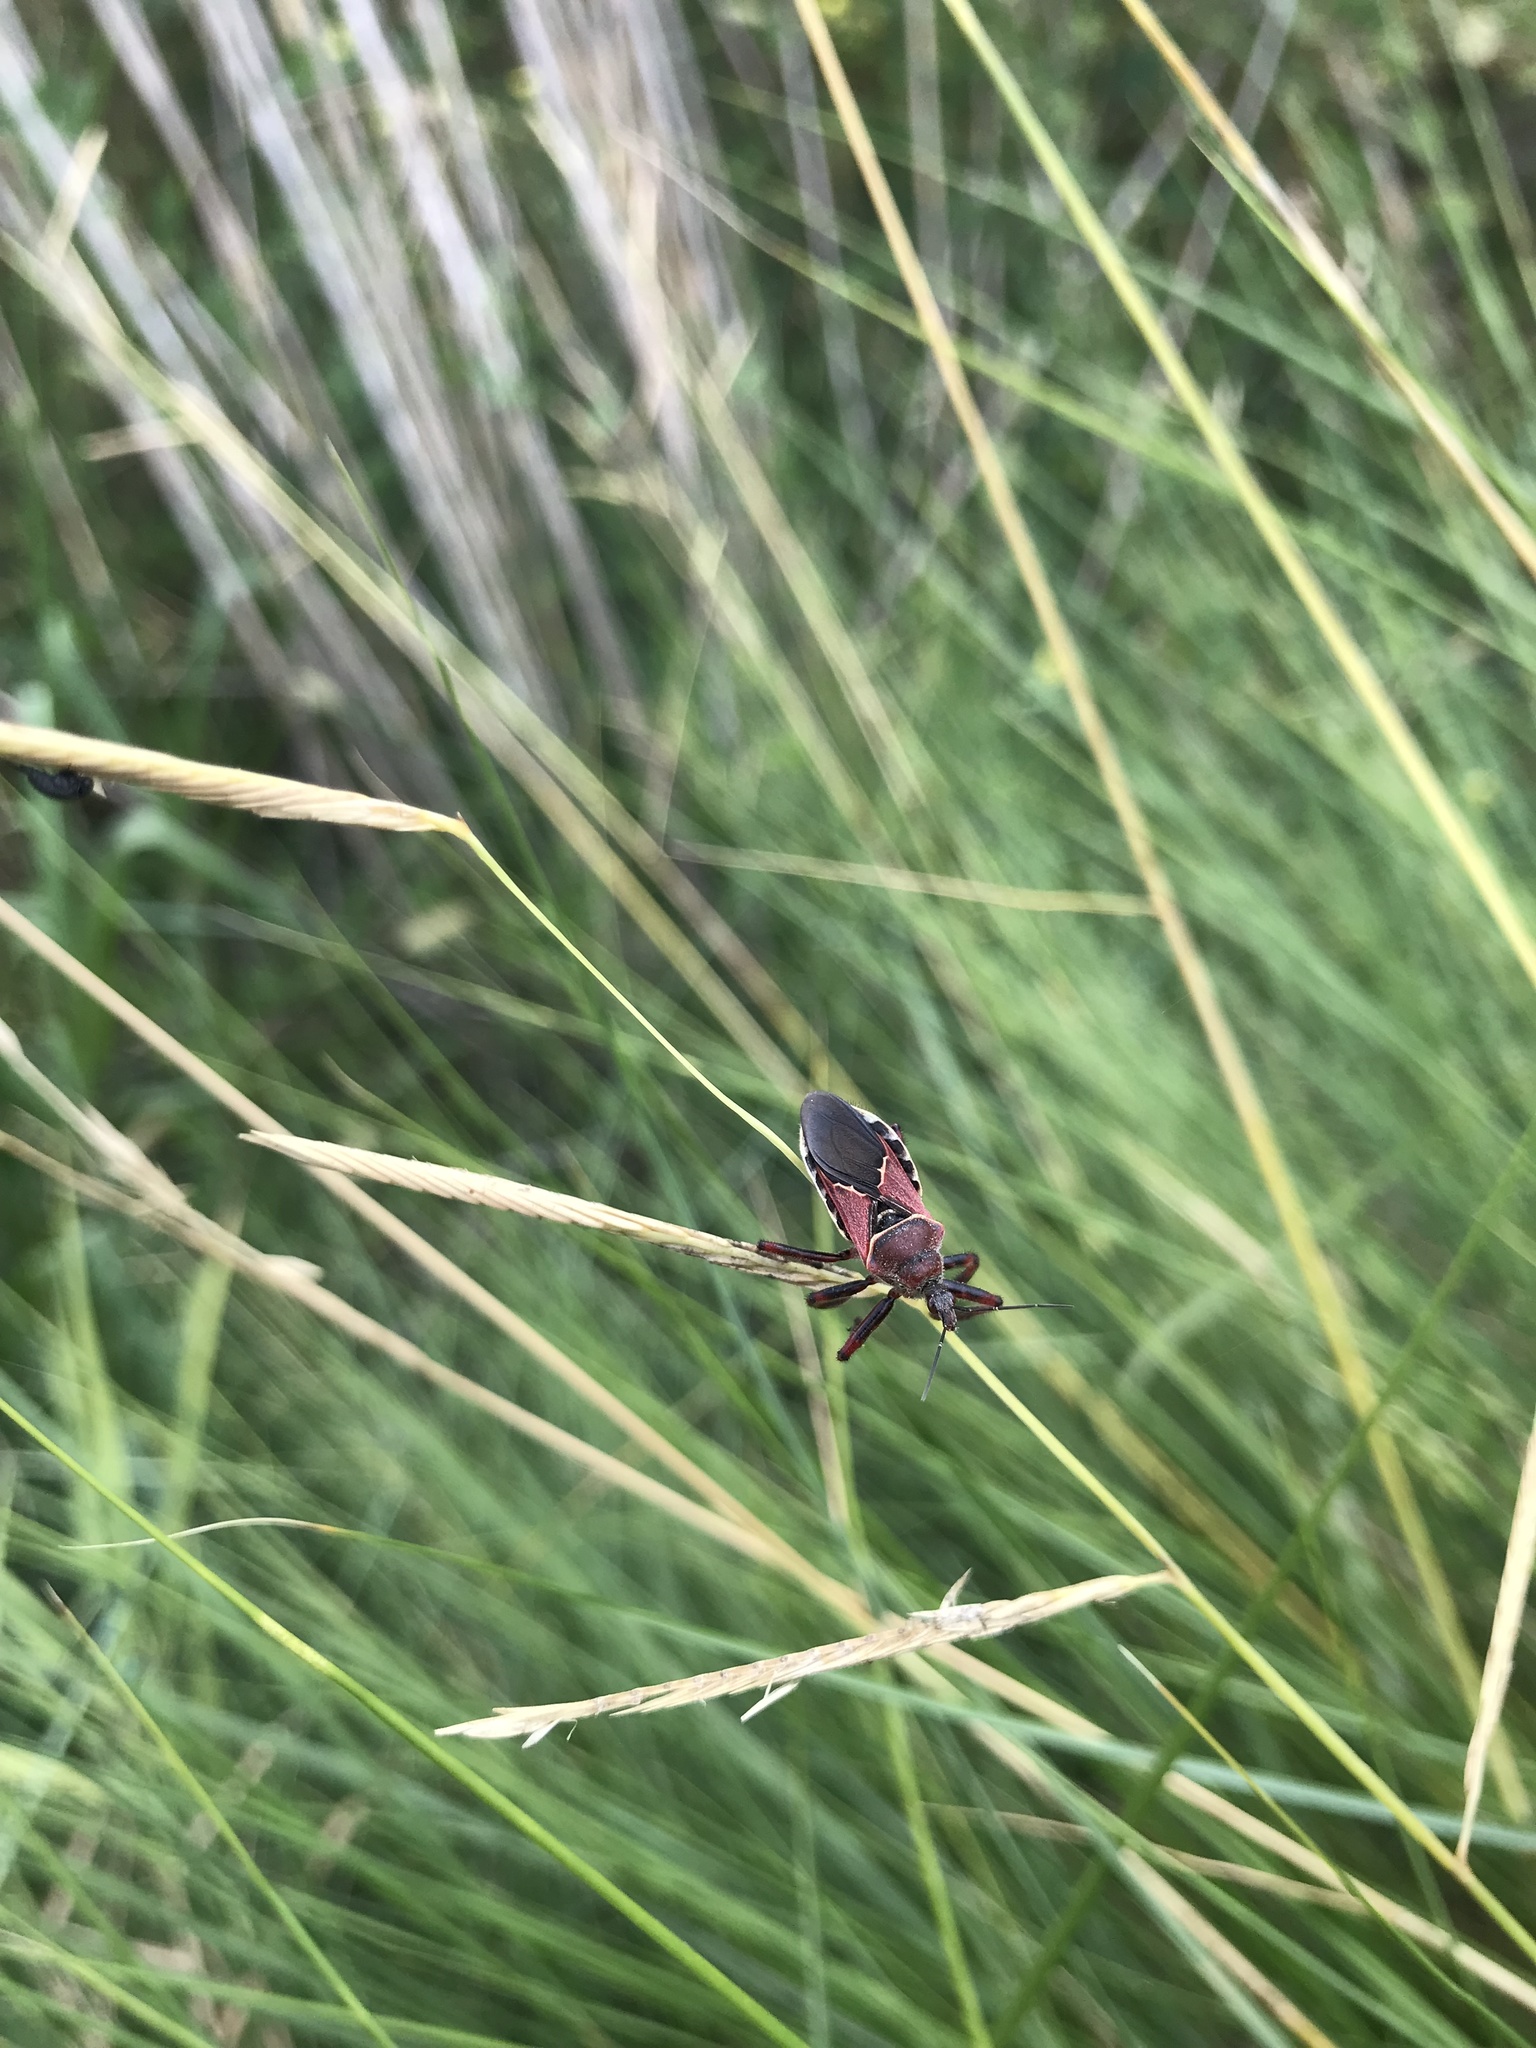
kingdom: Animalia
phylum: Arthropoda
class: Insecta
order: Hemiptera
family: Reduviidae
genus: Apiomerus
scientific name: Apiomerus spissipes
